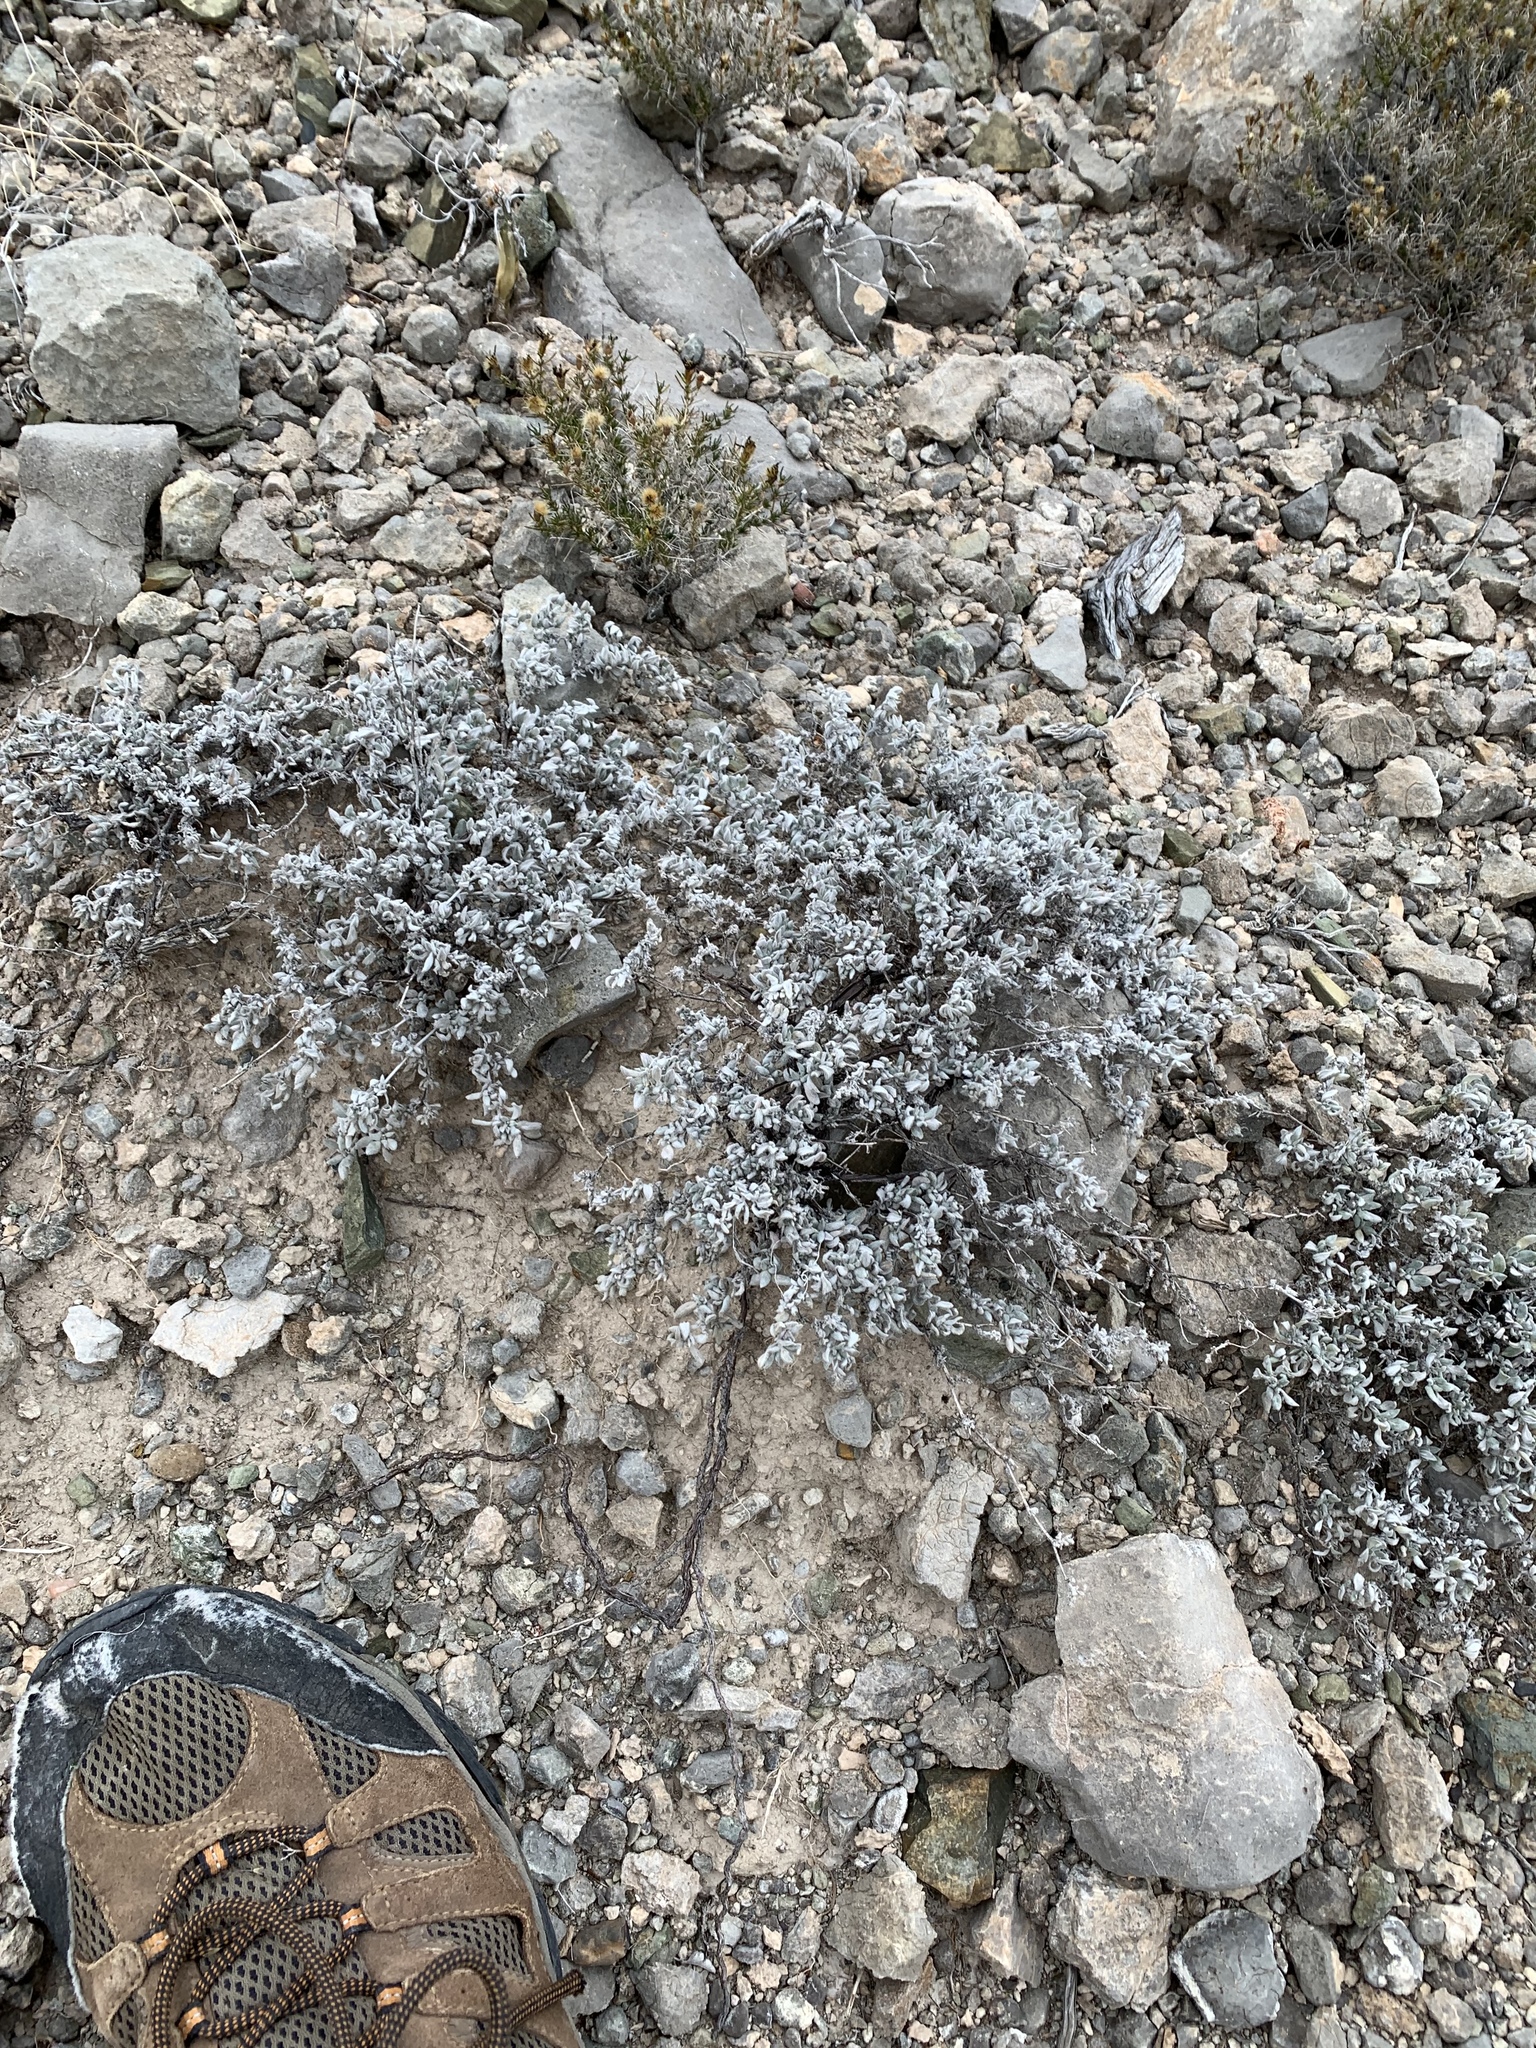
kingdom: Plantae
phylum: Tracheophyta
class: Magnoliopsida
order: Boraginales
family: Ehretiaceae
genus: Tiquilia
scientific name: Tiquilia canescens
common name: Hairy tiquilia
